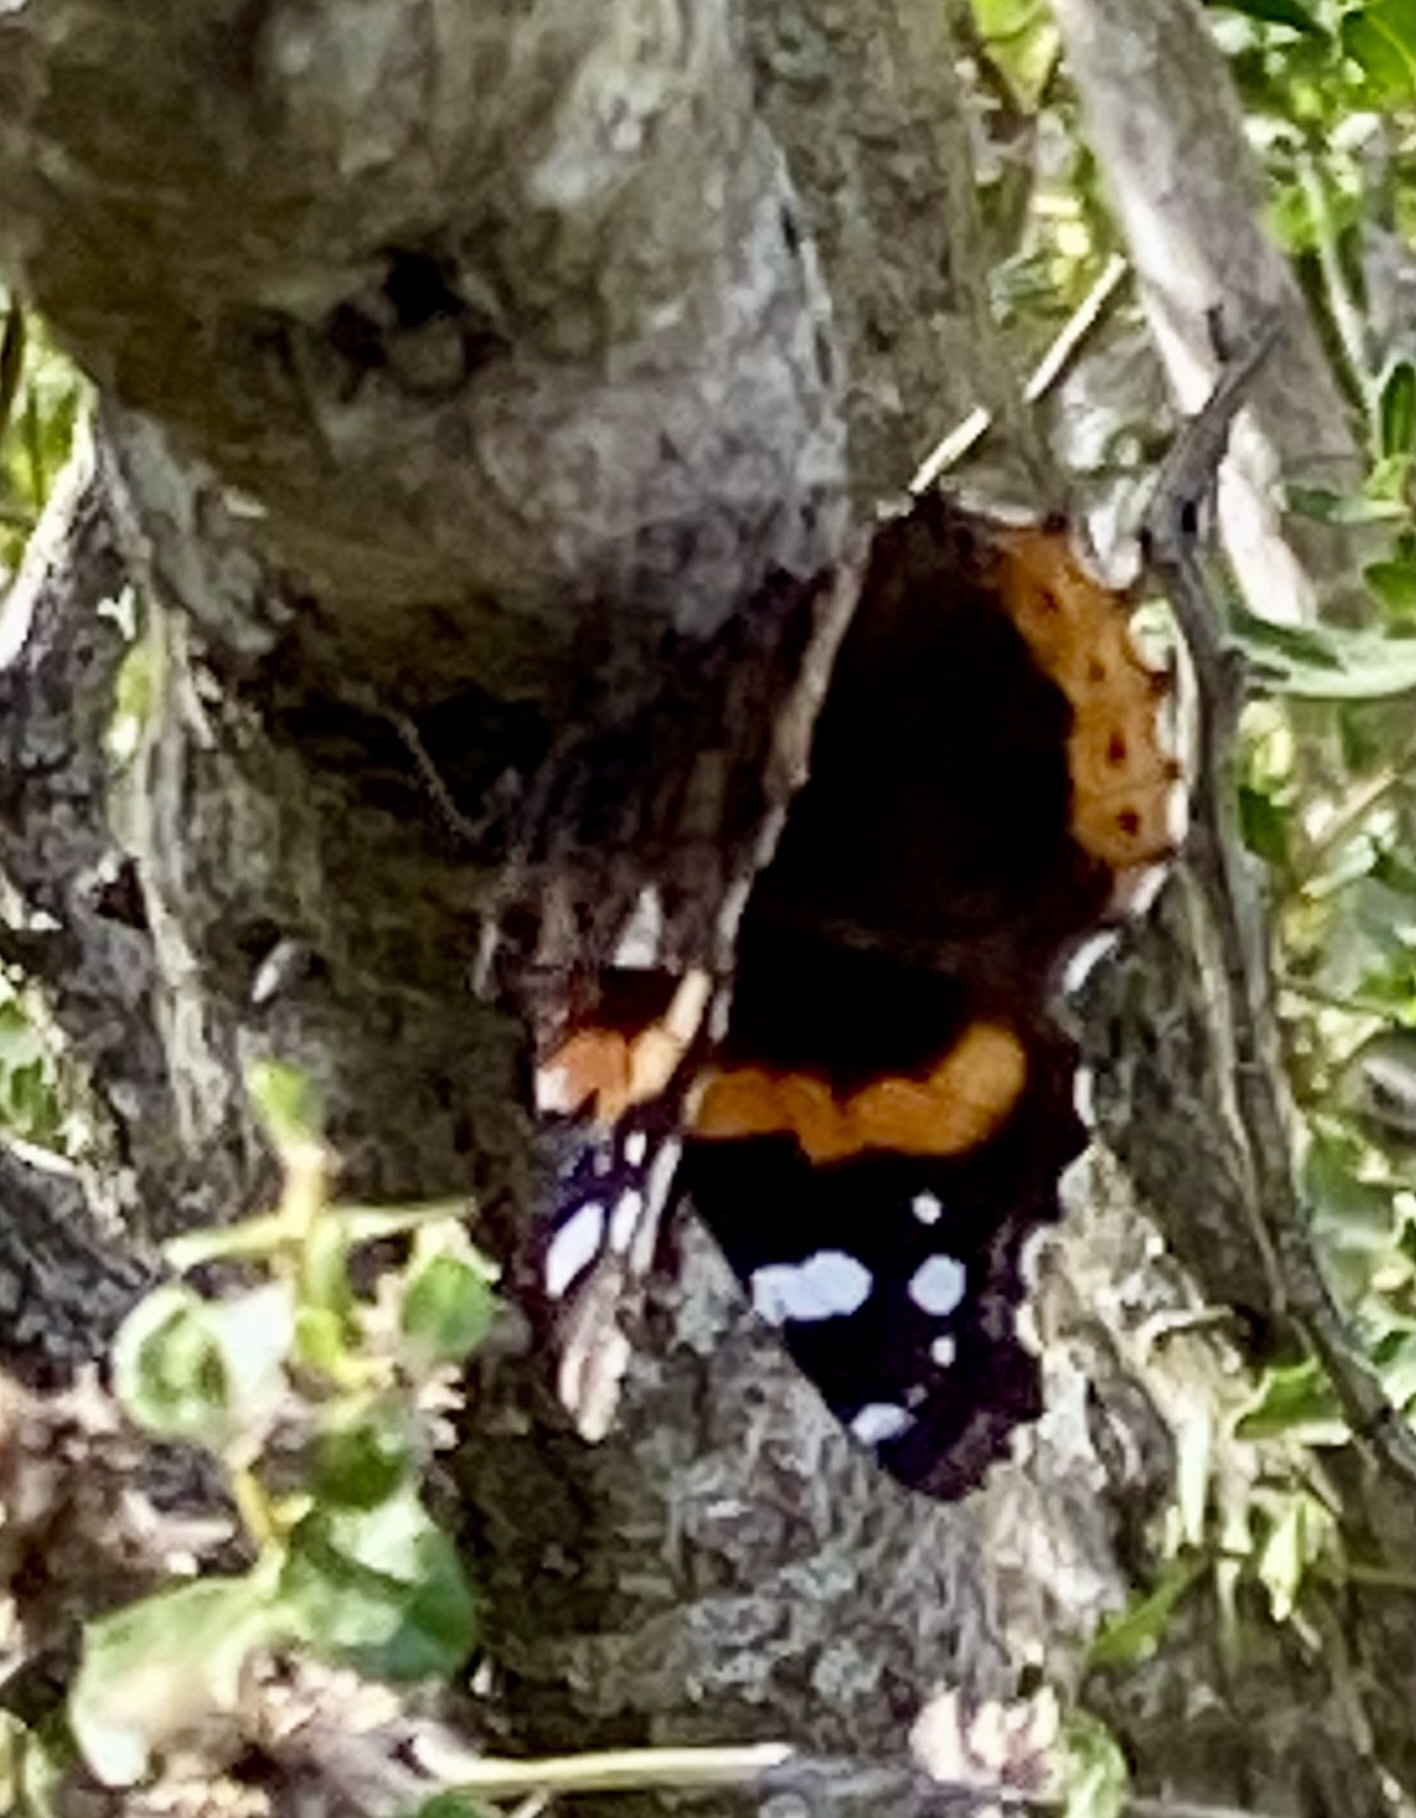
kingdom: Animalia
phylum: Arthropoda
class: Insecta
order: Lepidoptera
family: Nymphalidae
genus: Vanessa
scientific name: Vanessa atalanta
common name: Red admiral
